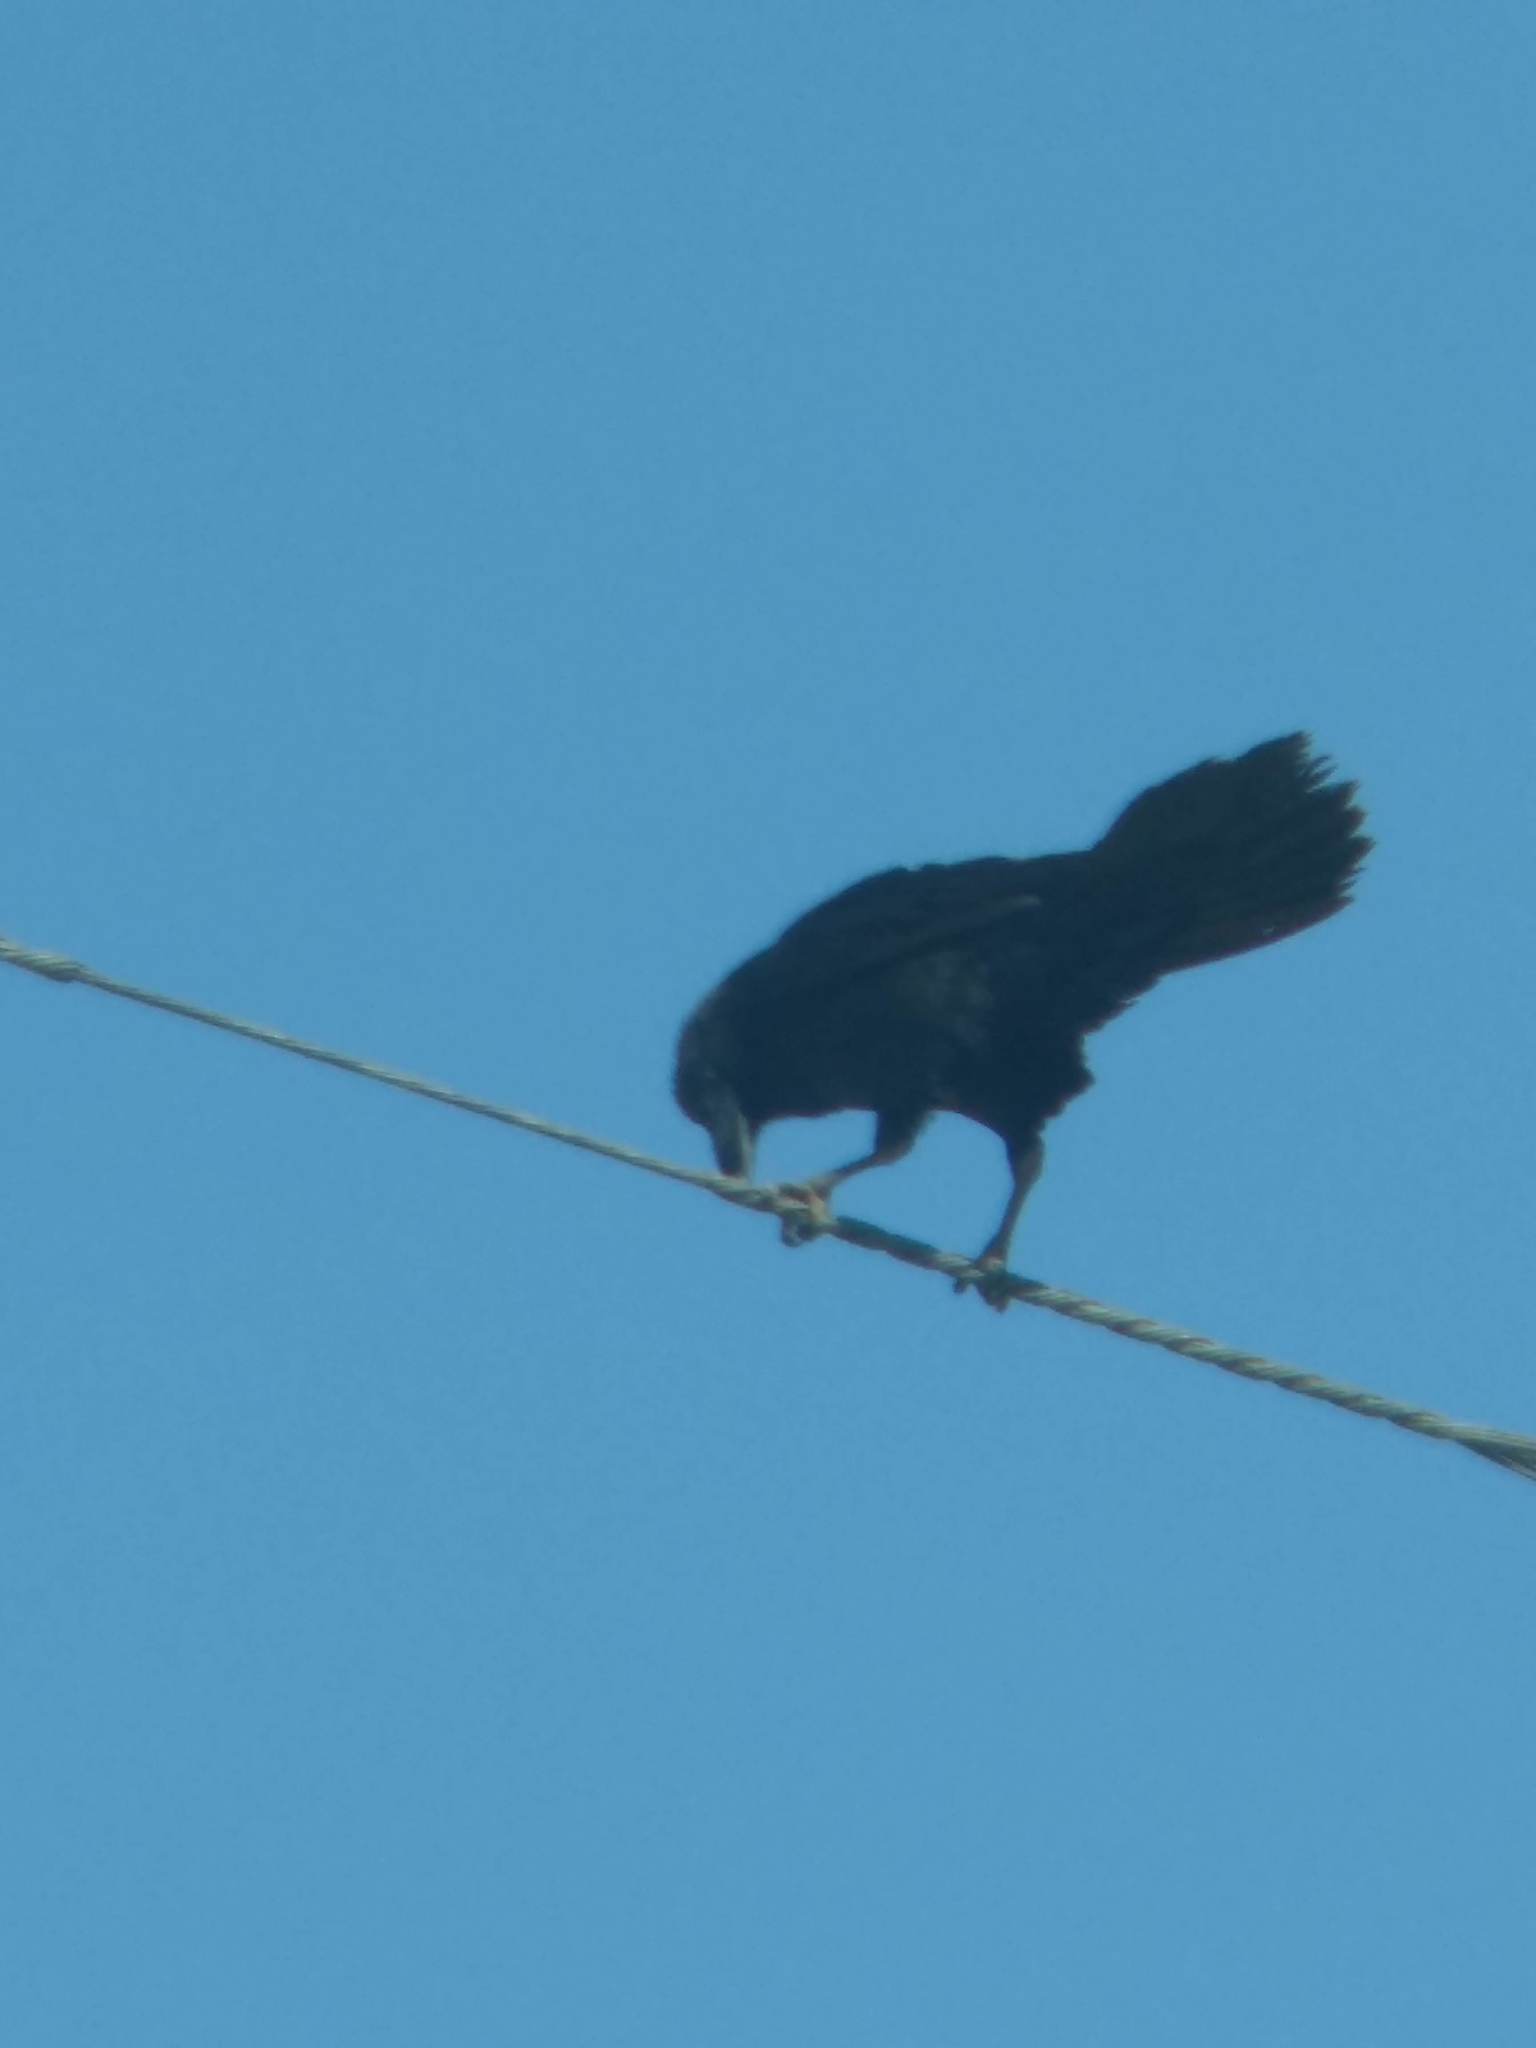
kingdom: Animalia
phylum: Chordata
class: Aves
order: Passeriformes
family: Corvidae
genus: Corvus
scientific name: Corvus corax
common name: Common raven
